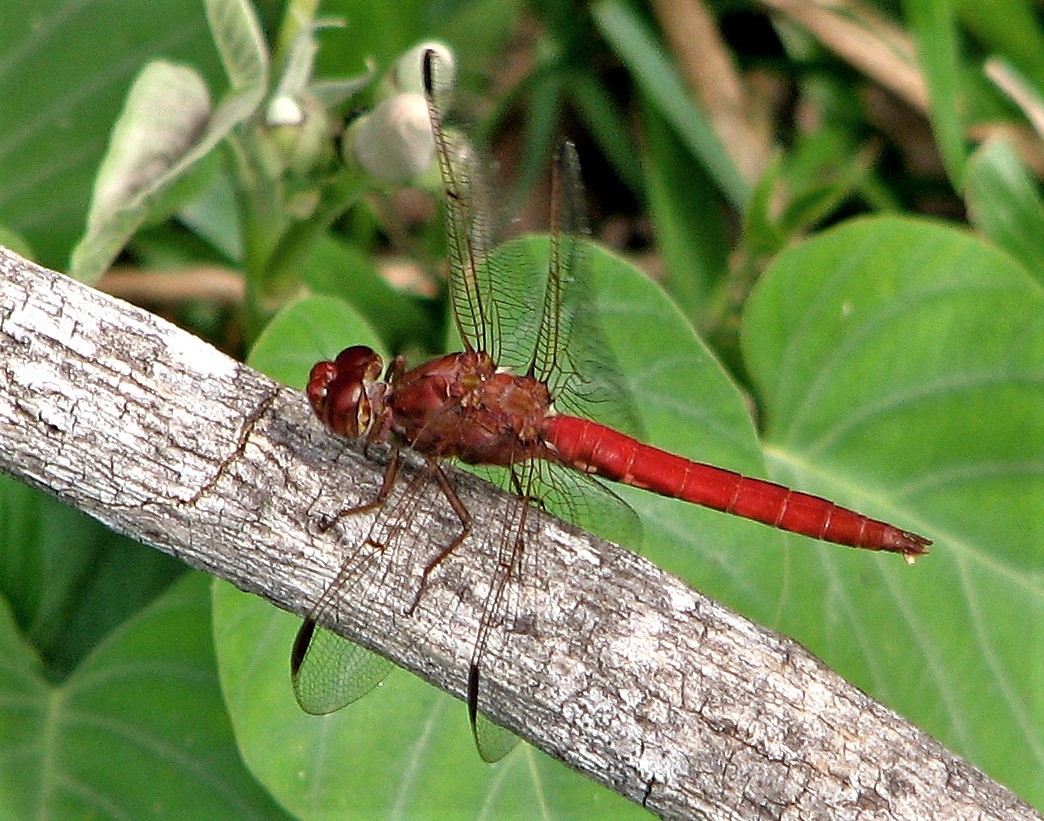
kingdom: Animalia
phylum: Arthropoda
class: Insecta
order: Odonata
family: Libellulidae
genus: Orthemis
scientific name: Orthemis nodiplaga
